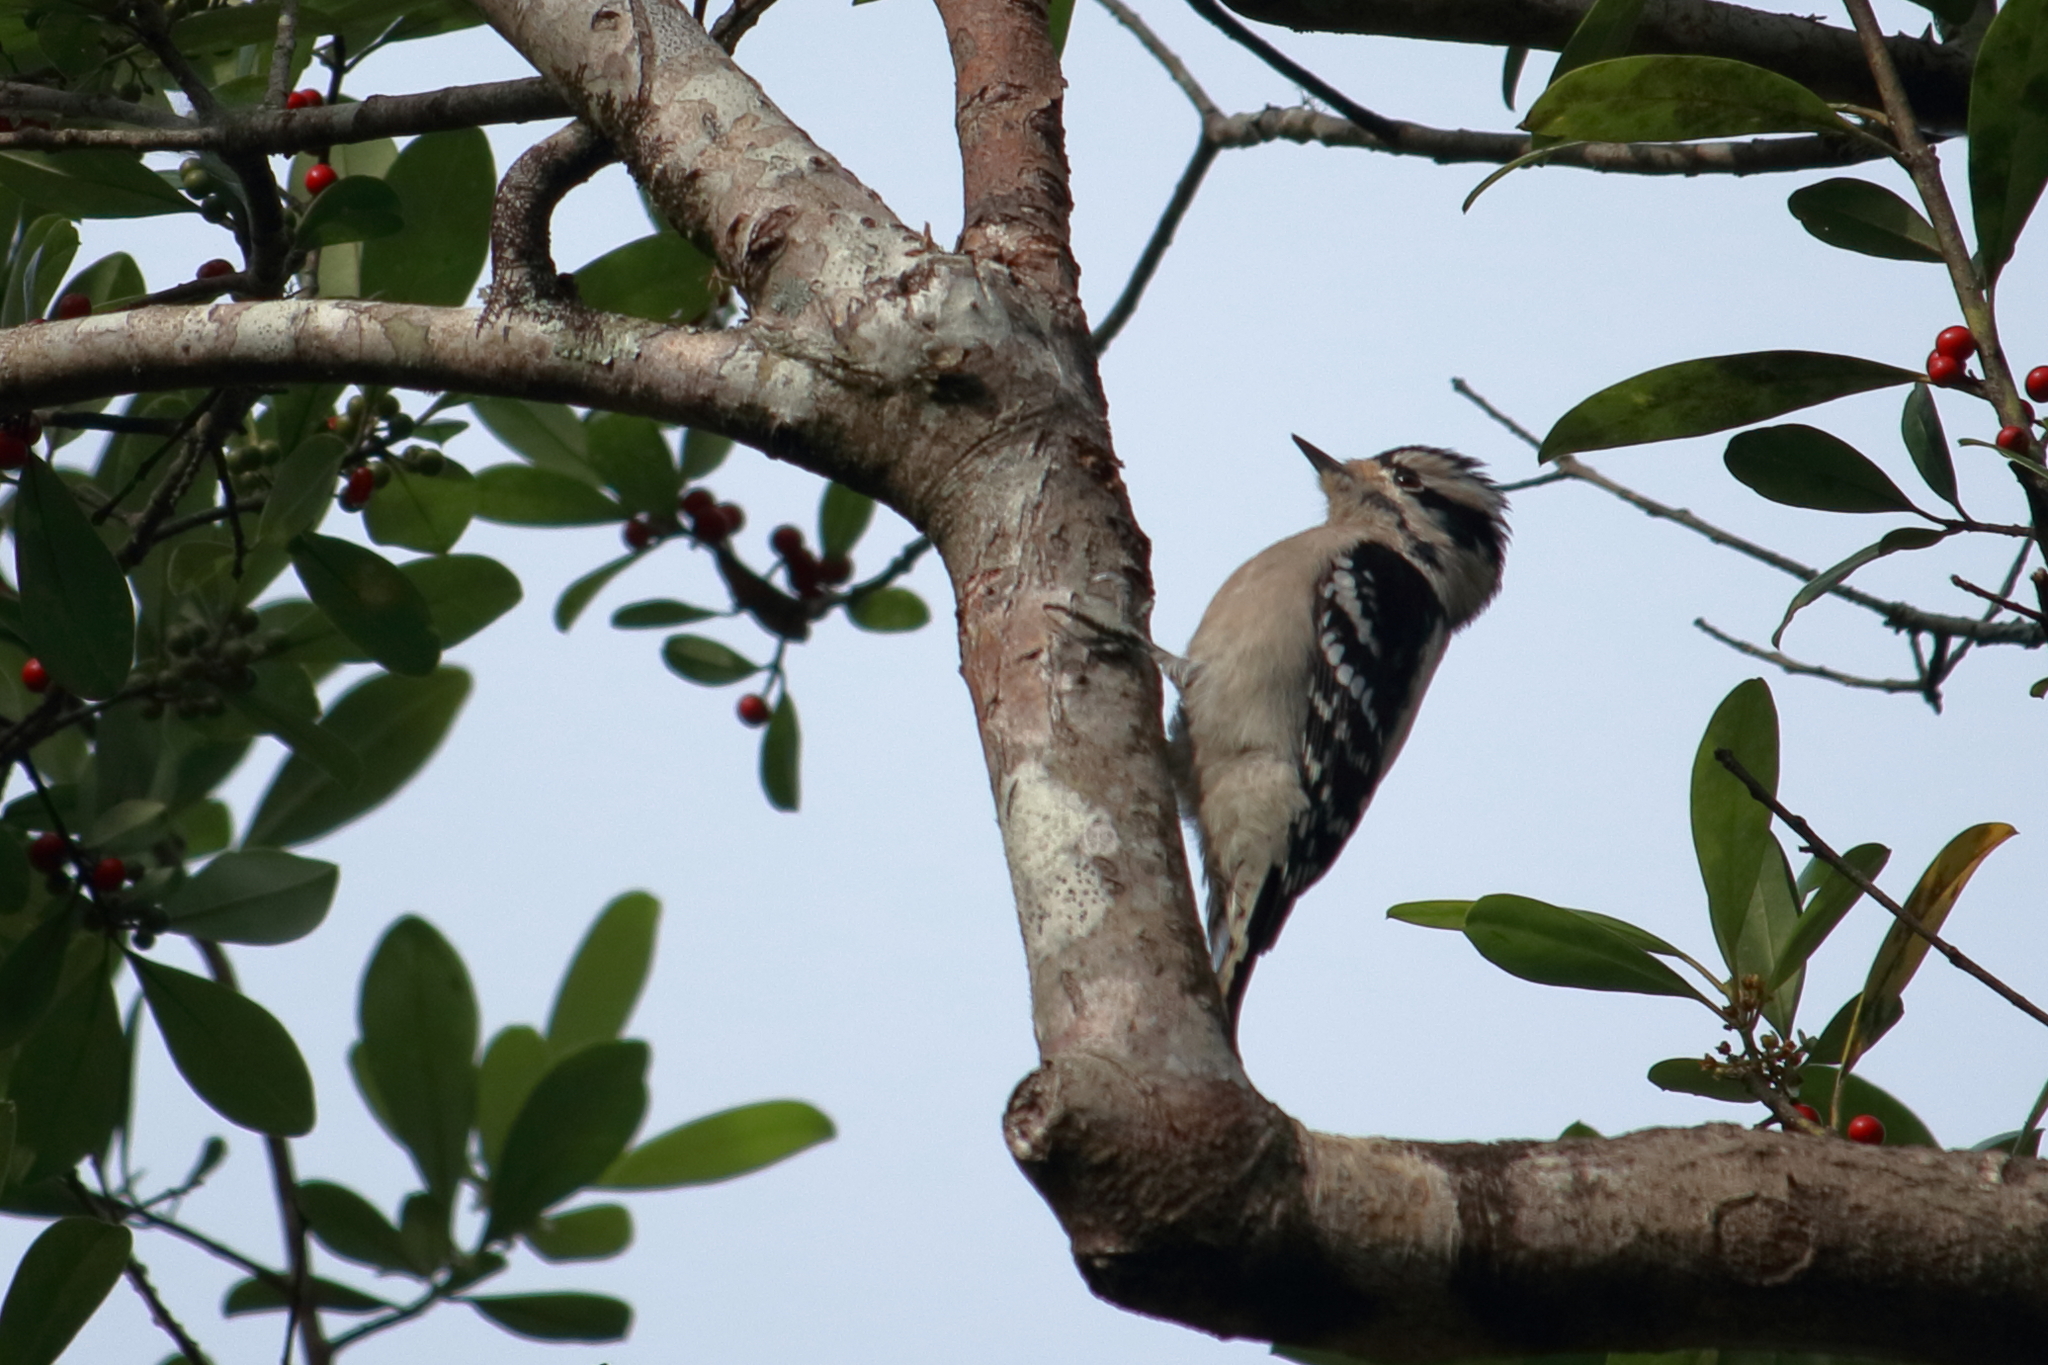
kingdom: Animalia
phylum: Chordata
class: Aves
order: Piciformes
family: Picidae
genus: Dryobates
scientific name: Dryobates pubescens
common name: Downy woodpecker
